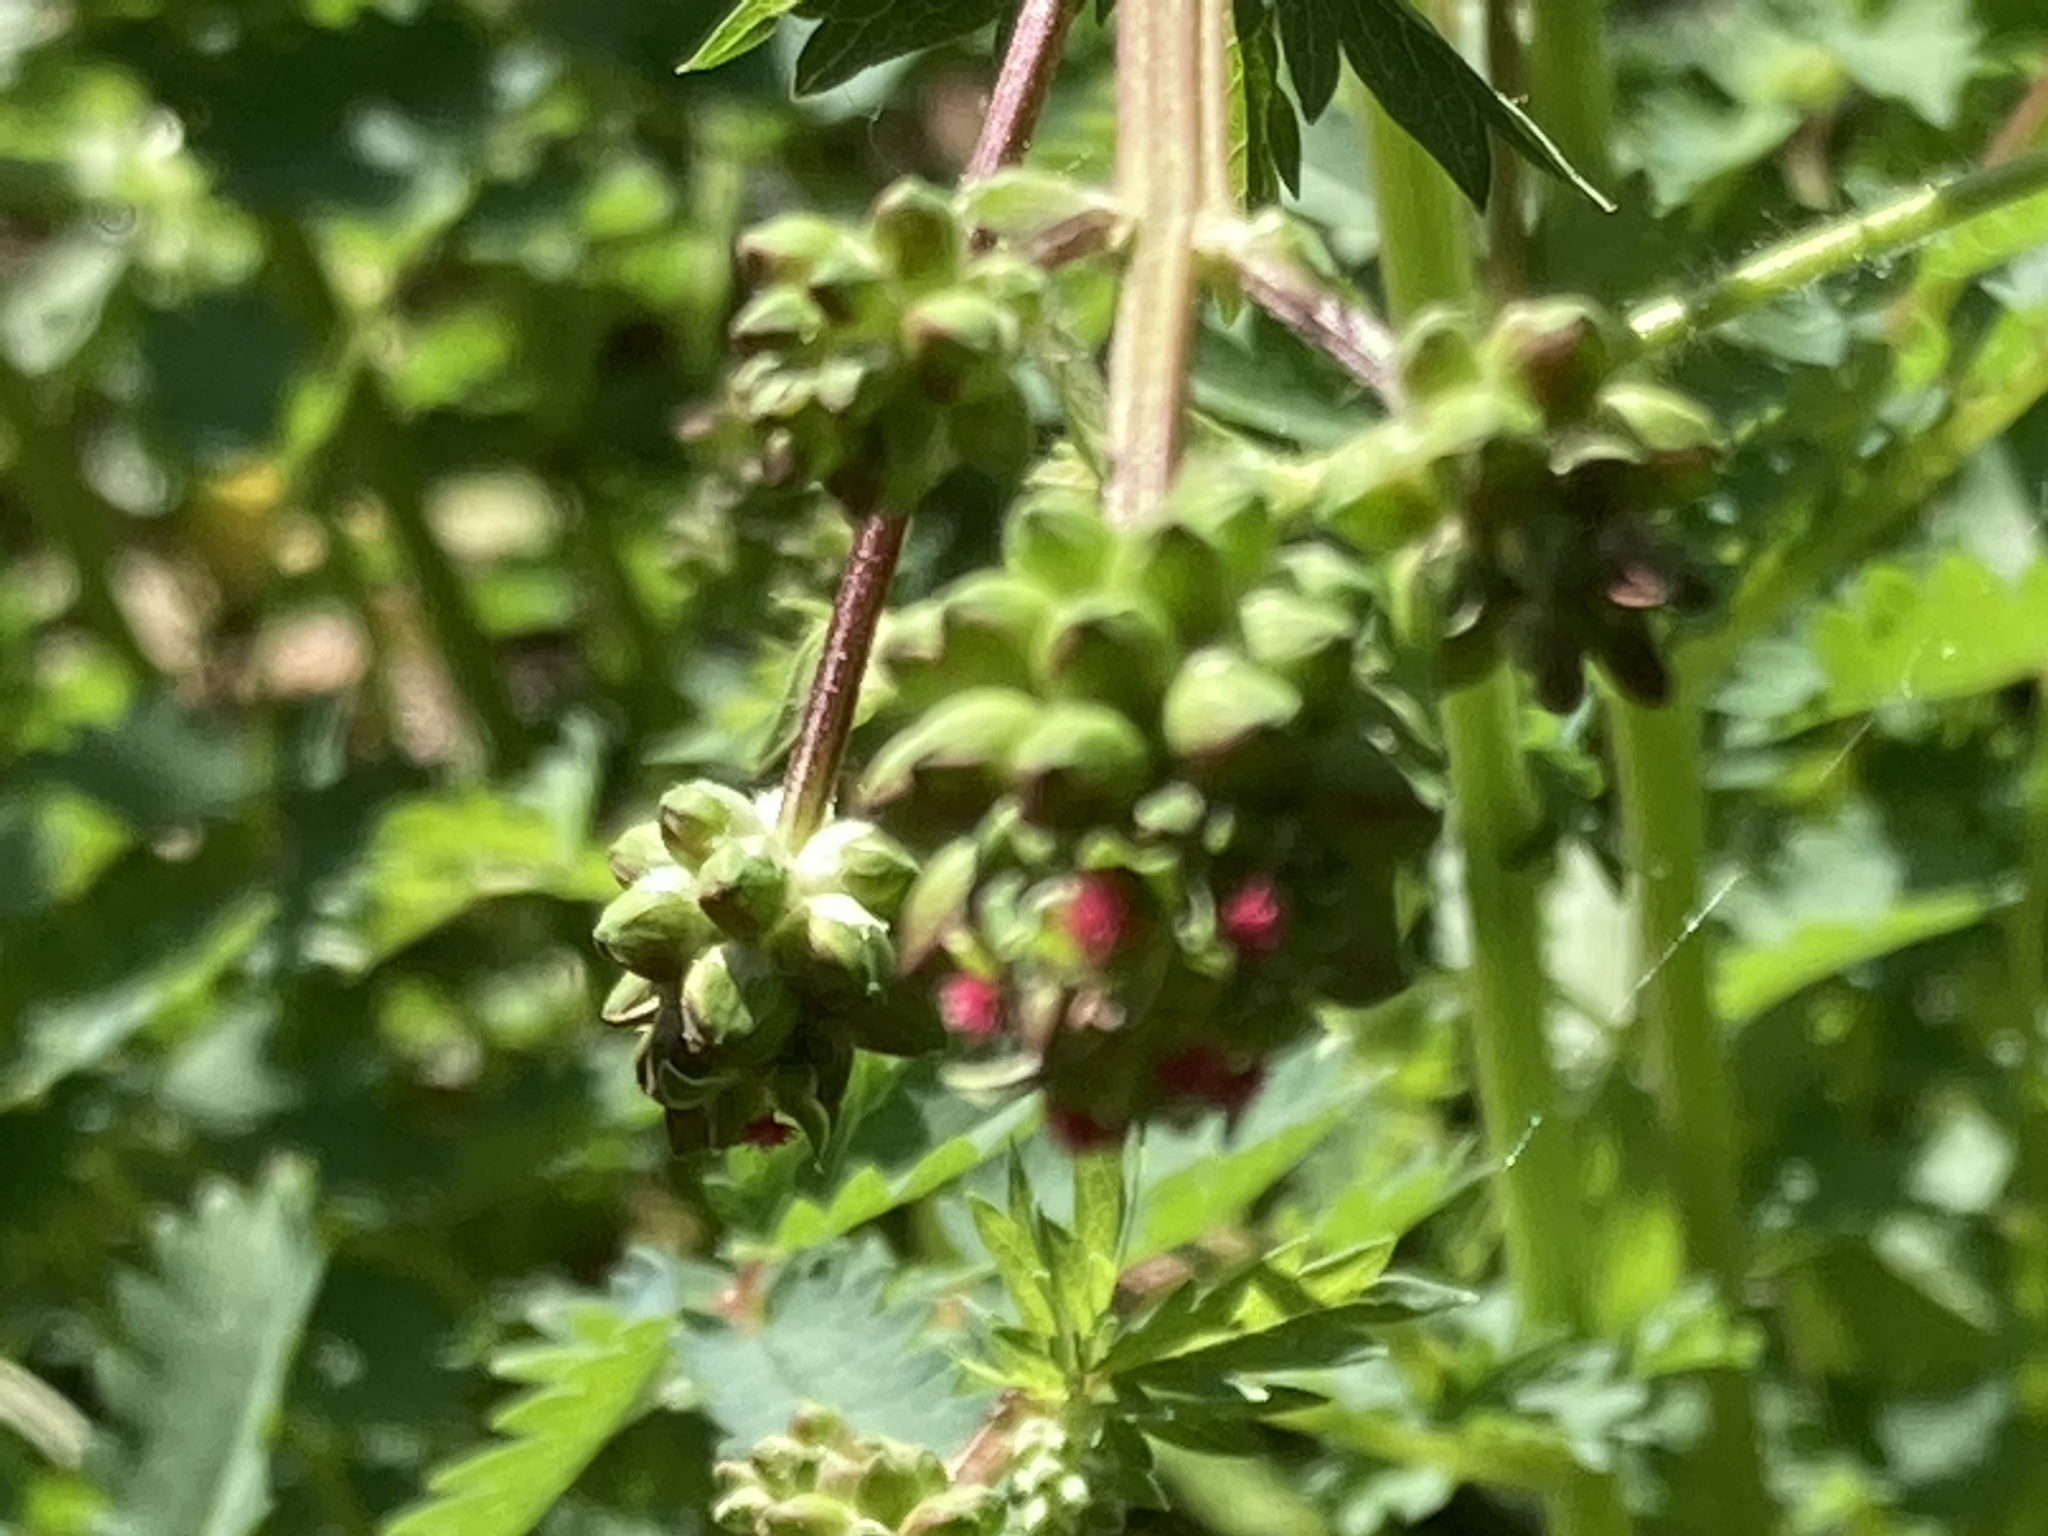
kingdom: Plantae
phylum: Tracheophyta
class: Magnoliopsida
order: Rosales
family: Rosaceae
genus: Poterium
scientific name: Poterium sanguisorba
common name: Salad burnet
